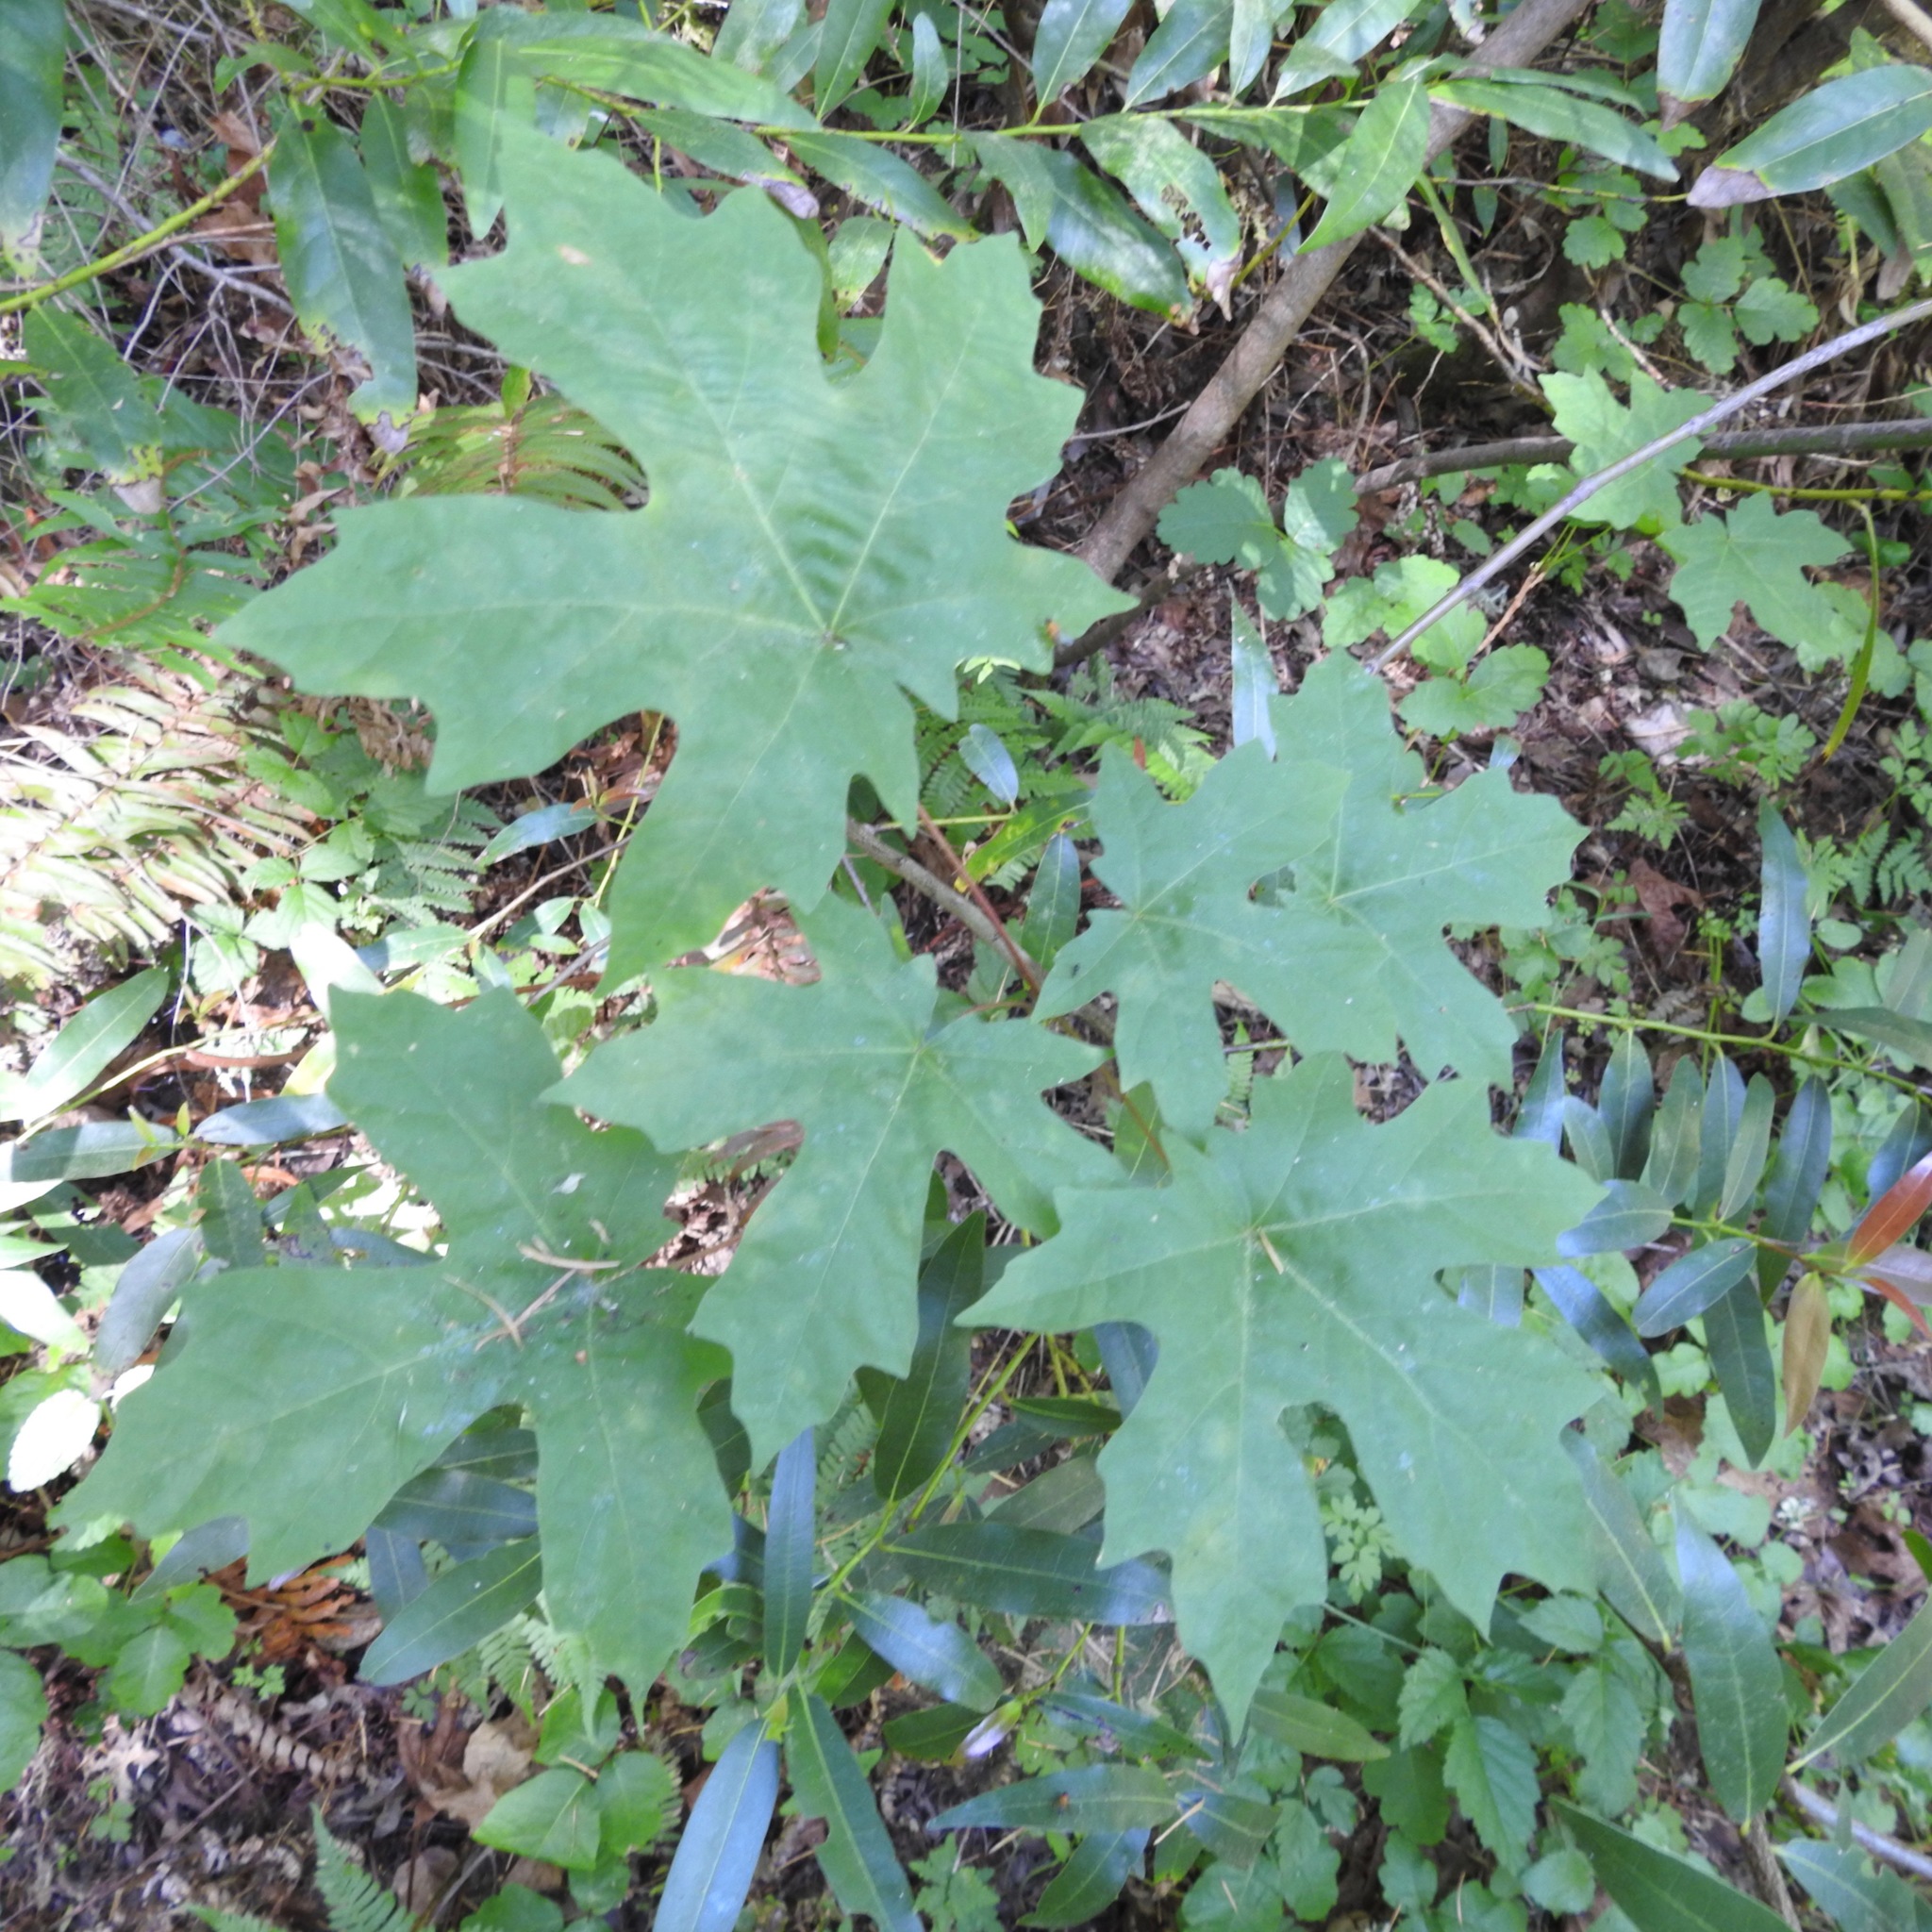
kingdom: Plantae
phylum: Tracheophyta
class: Magnoliopsida
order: Sapindales
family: Sapindaceae
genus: Acer
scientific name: Acer macrophyllum
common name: Oregon maple
